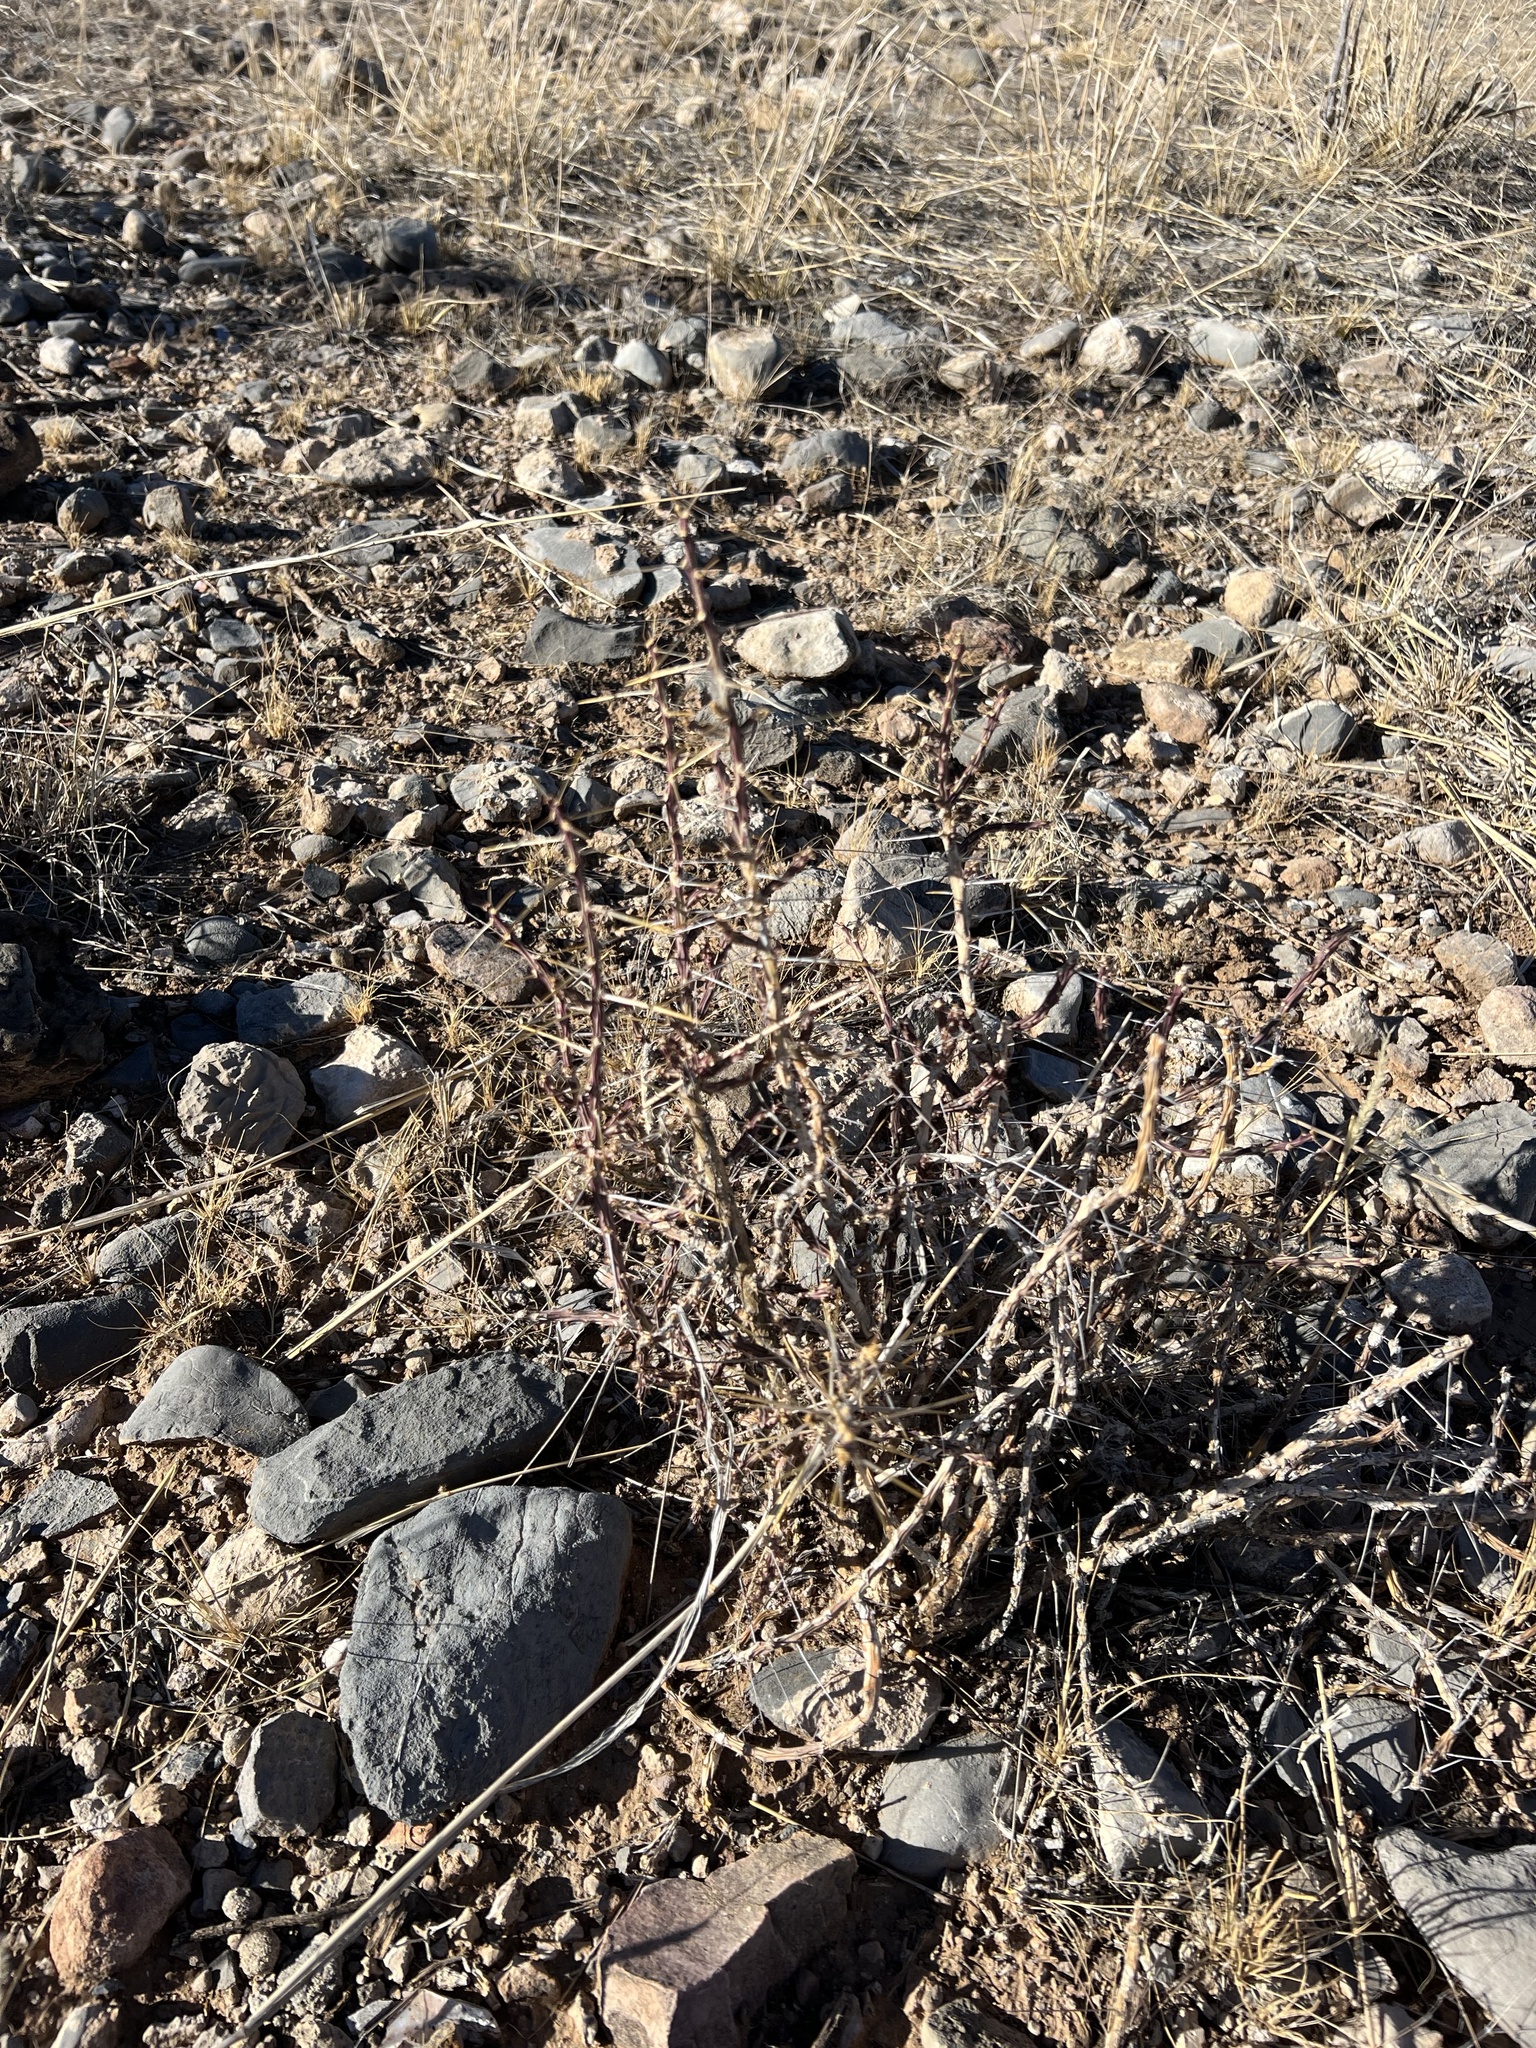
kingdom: Plantae
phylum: Tracheophyta
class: Magnoliopsida
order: Caryophyllales
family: Cactaceae
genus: Cylindropuntia
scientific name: Cylindropuntia leptocaulis
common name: Christmas cactus
